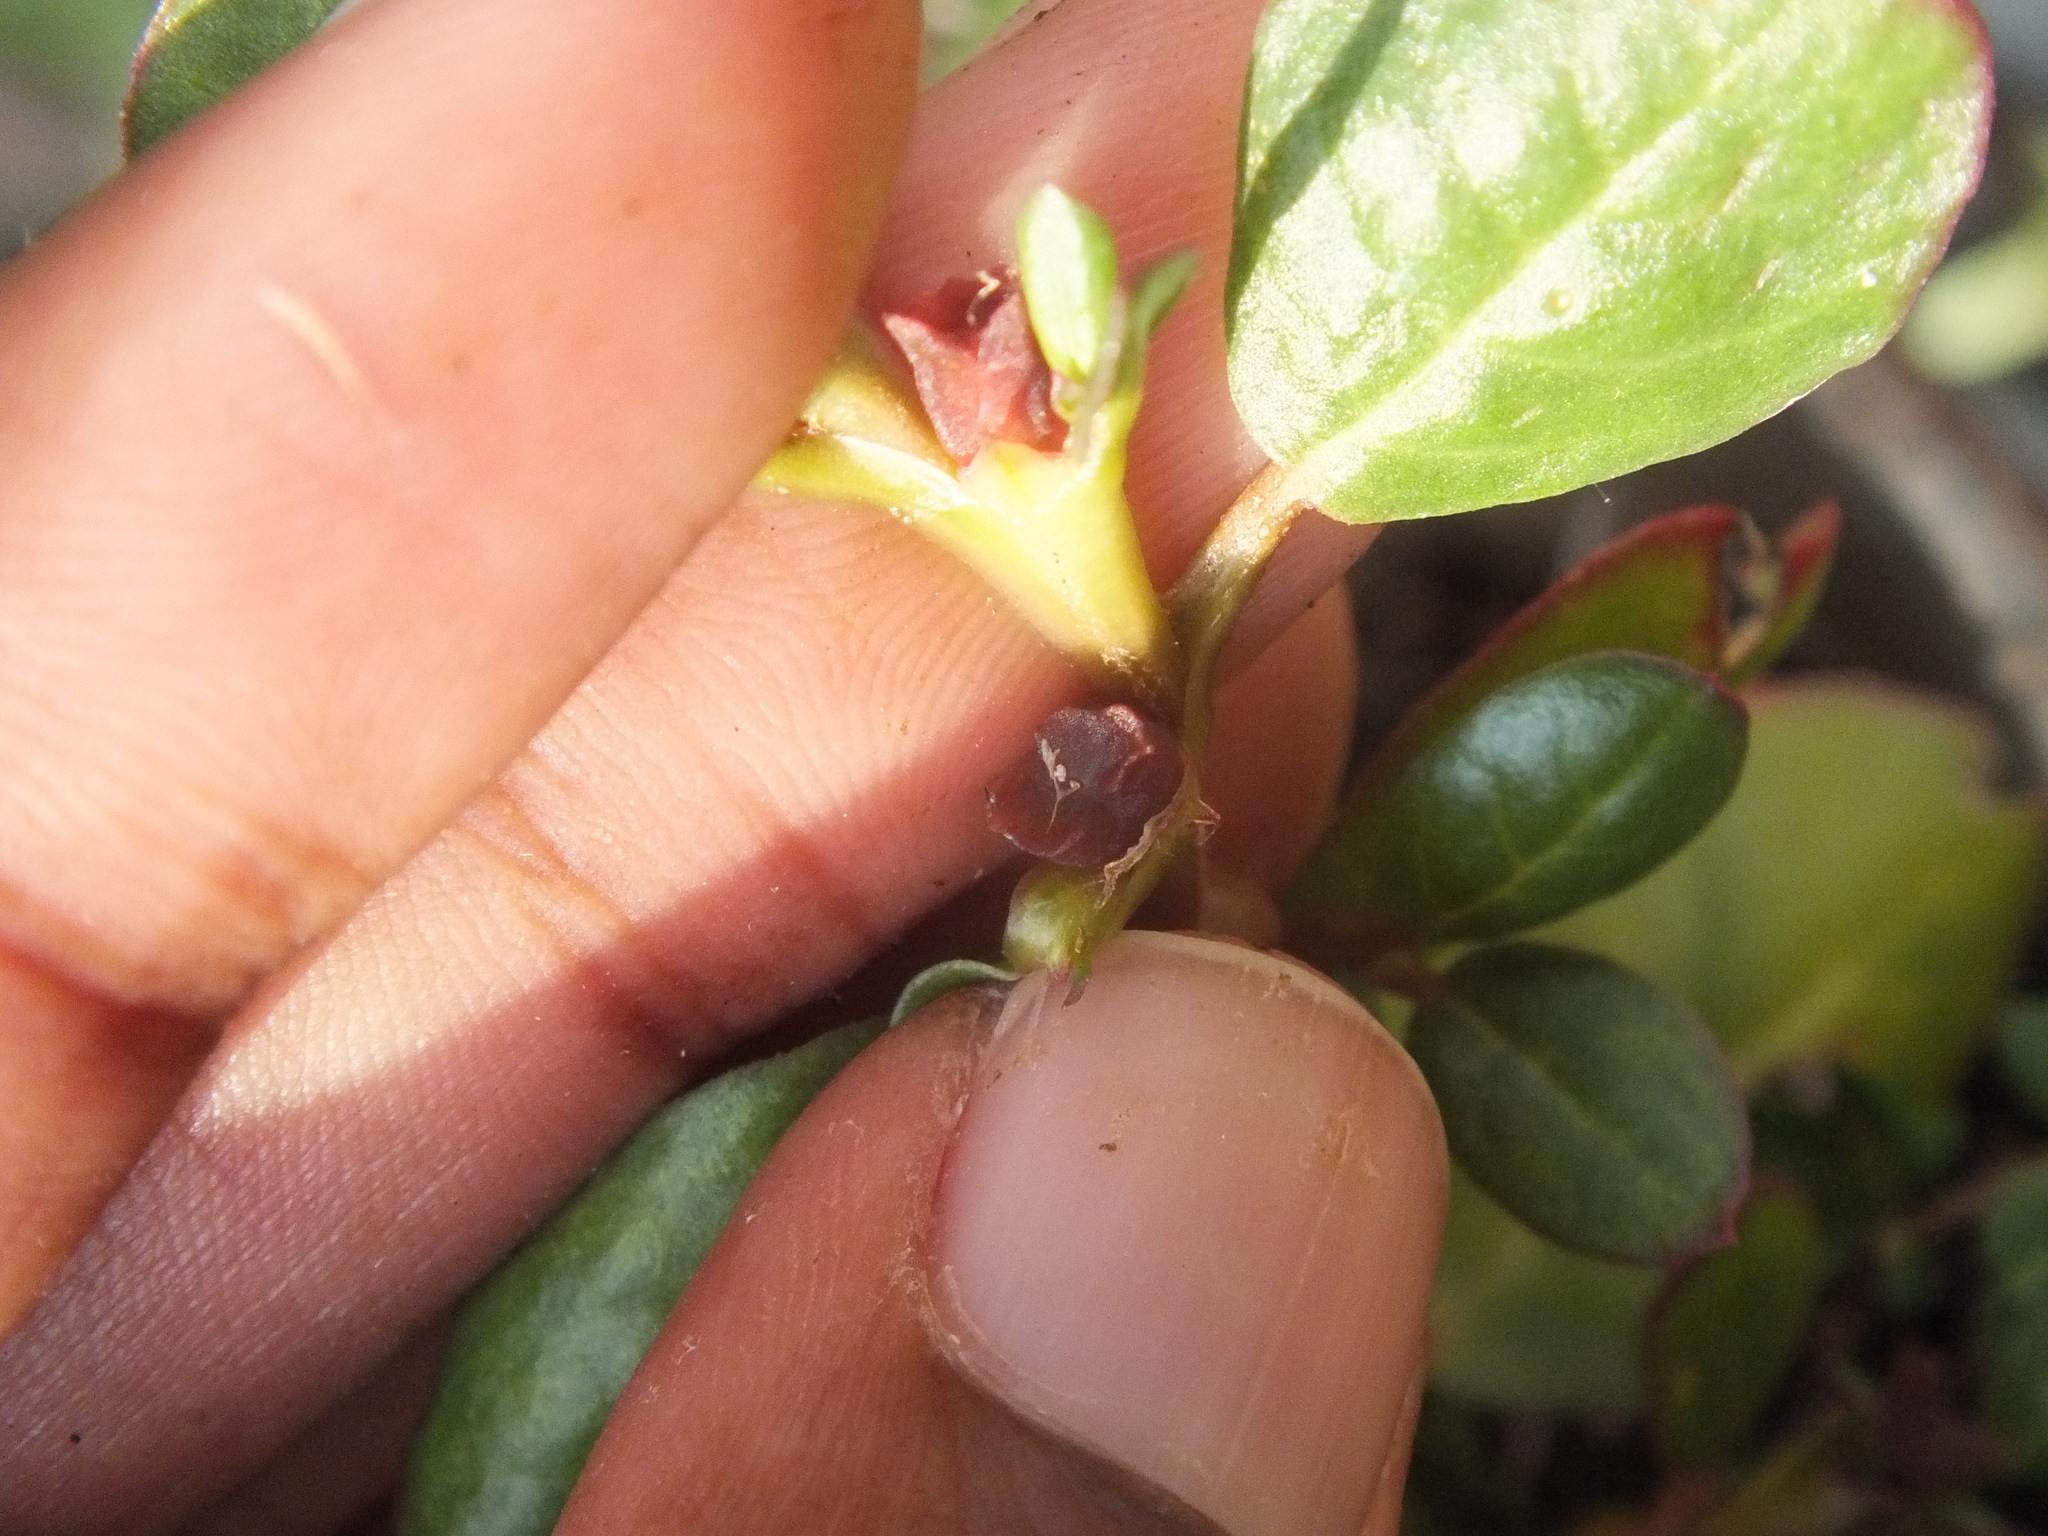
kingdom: Plantae
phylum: Tracheophyta
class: Magnoliopsida
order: Caryophyllales
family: Aizoaceae
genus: Trianthema
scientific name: Trianthema portulacastrum
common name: Desert horsepurslane
